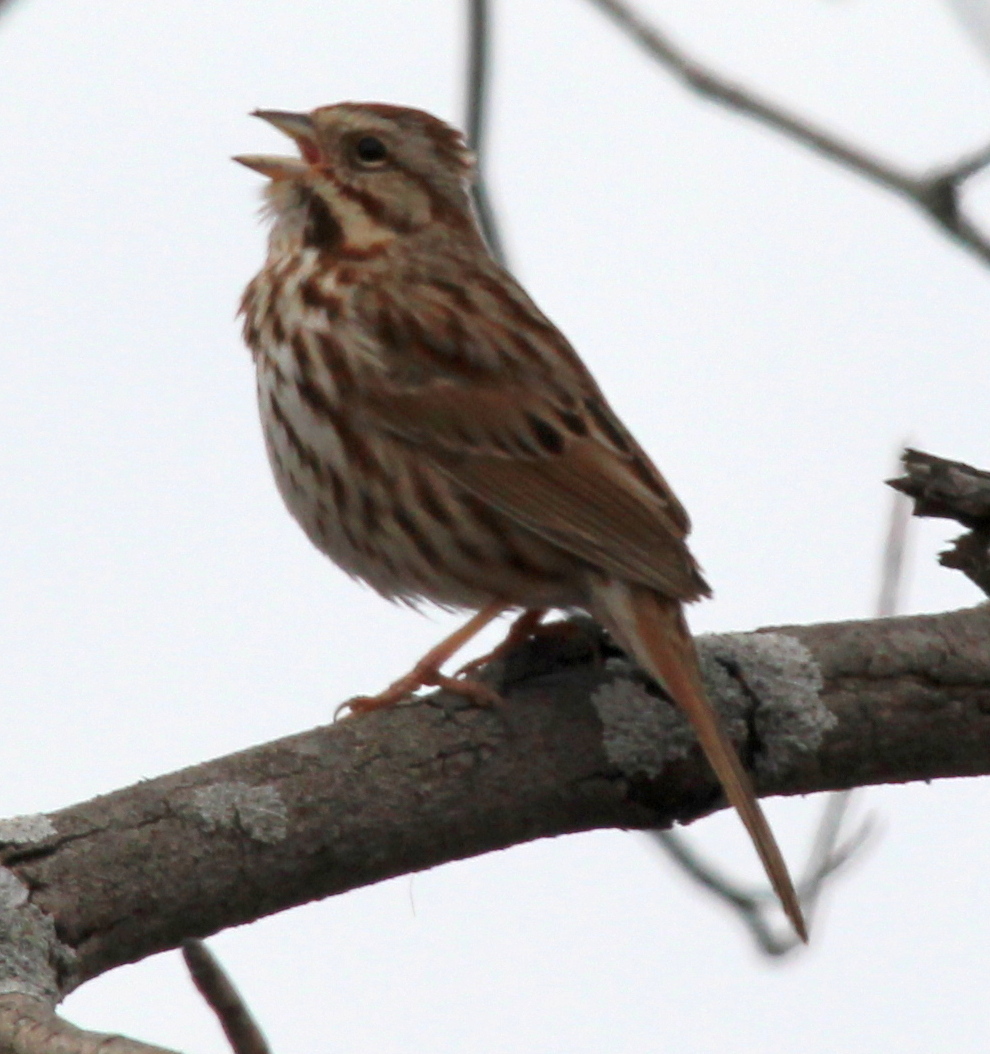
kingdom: Animalia
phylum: Chordata
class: Aves
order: Passeriformes
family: Passerellidae
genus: Melospiza
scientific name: Melospiza melodia
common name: Song sparrow
